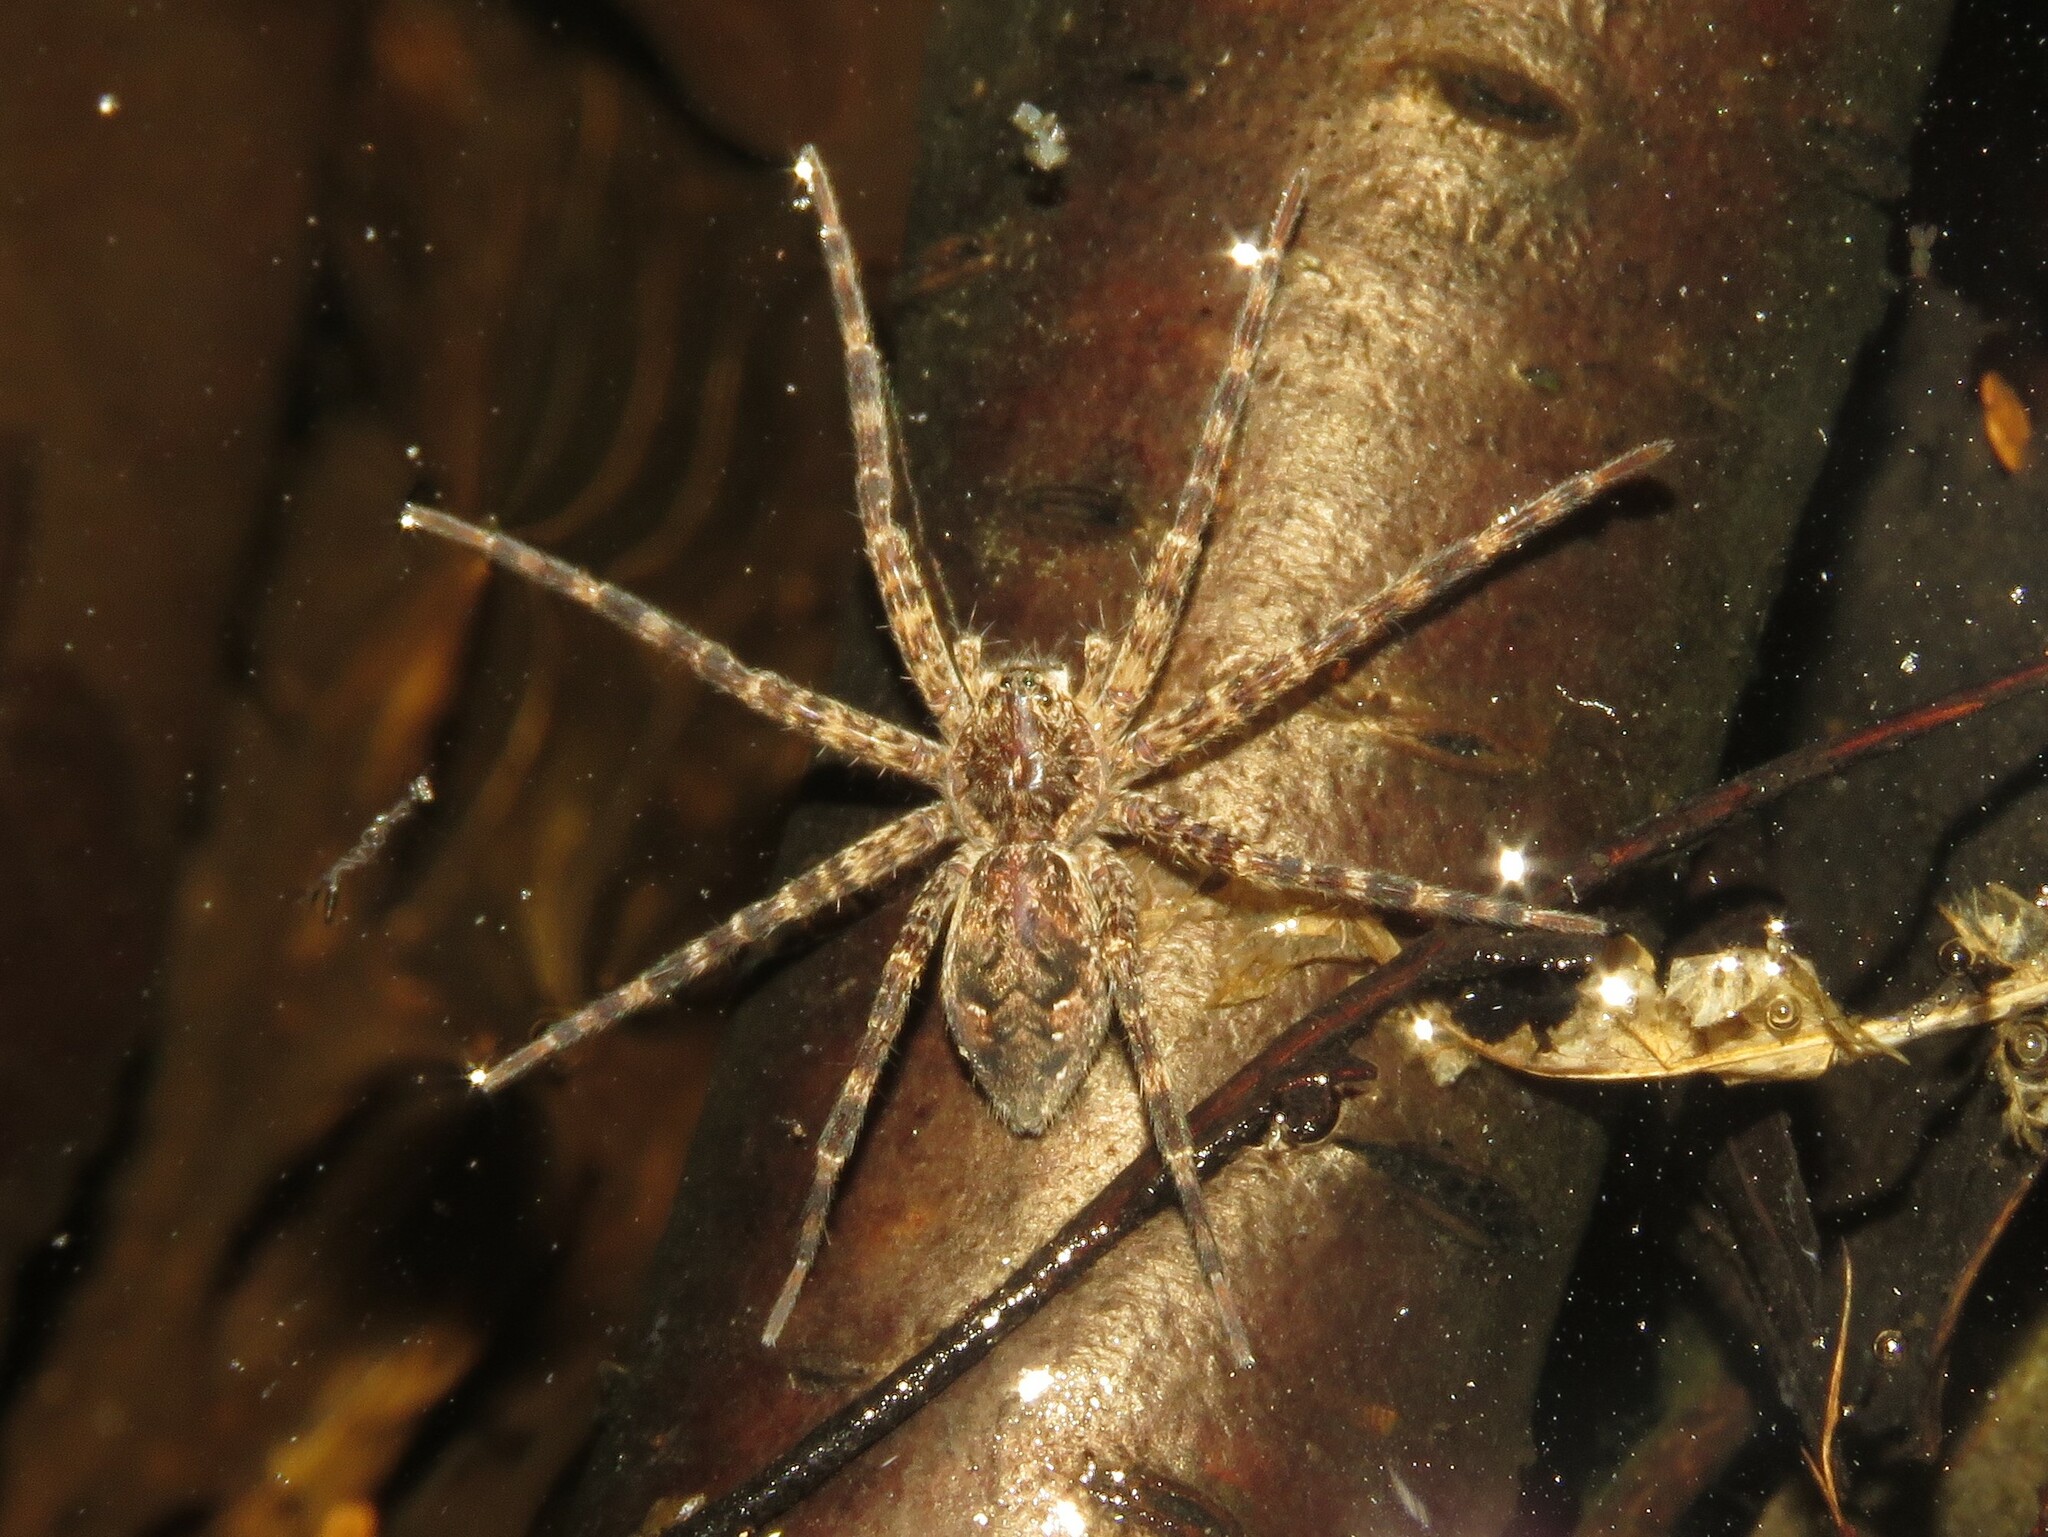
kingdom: Animalia
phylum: Arthropoda
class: Arachnida
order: Araneae
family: Pisauridae
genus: Dolomedes
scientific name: Dolomedes tenebrosus
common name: Dark fishing spider
